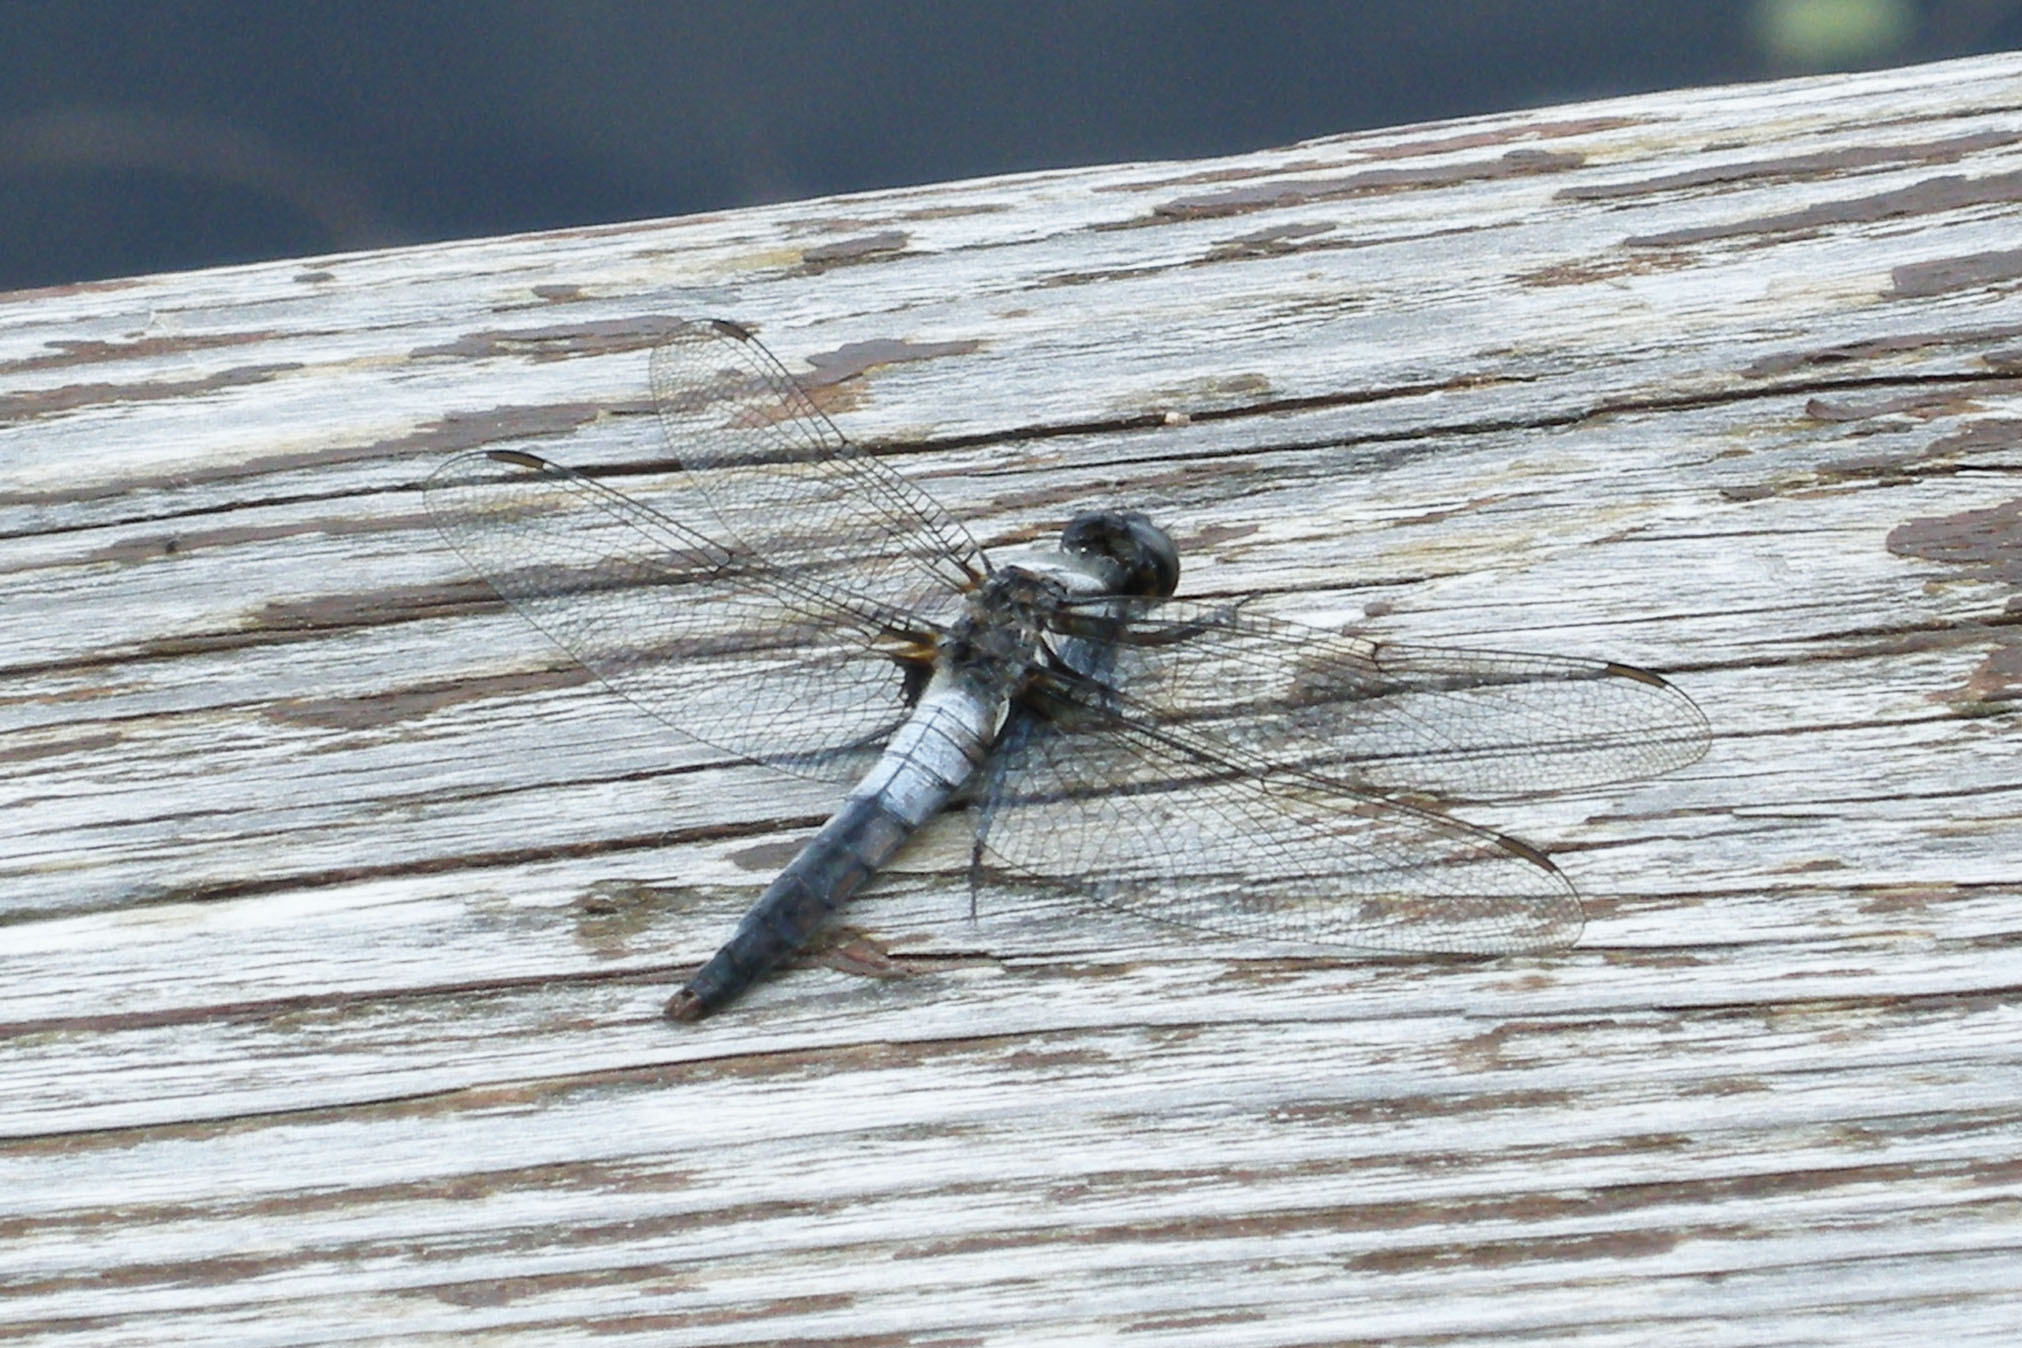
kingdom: Animalia
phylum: Arthropoda
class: Insecta
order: Odonata
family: Libellulidae
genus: Ladona
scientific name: Ladona julia
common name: Chalk-fronted corporal
